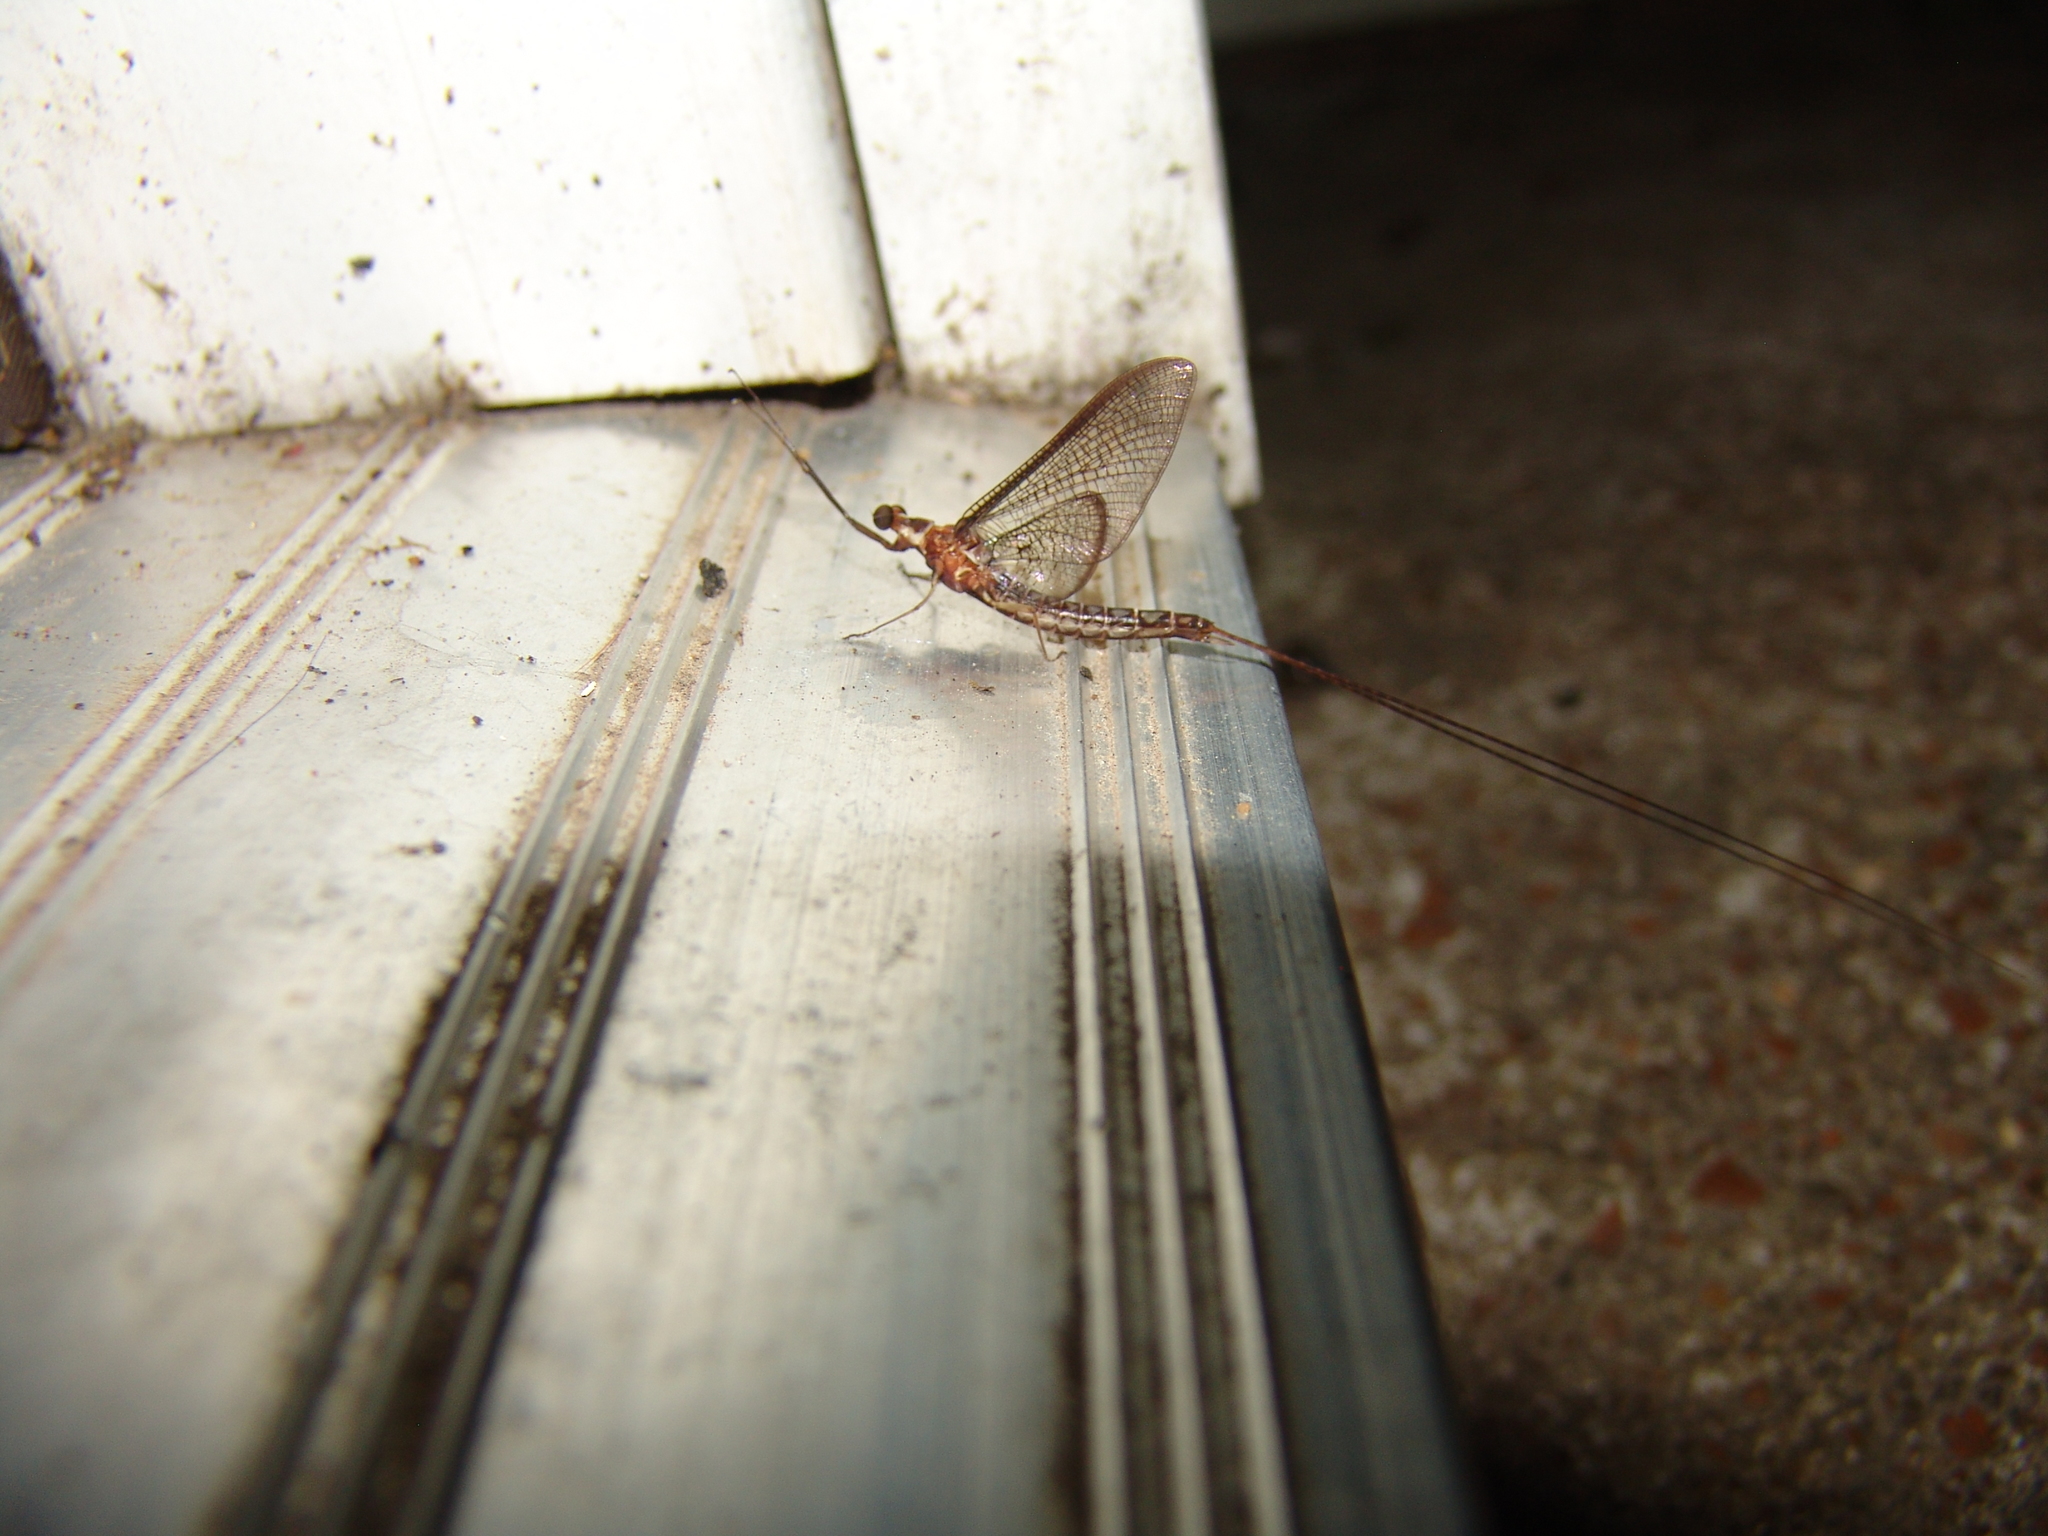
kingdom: Animalia
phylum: Arthropoda
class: Insecta
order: Ephemeroptera
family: Ephemeridae
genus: Hexagenia
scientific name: Hexagenia
